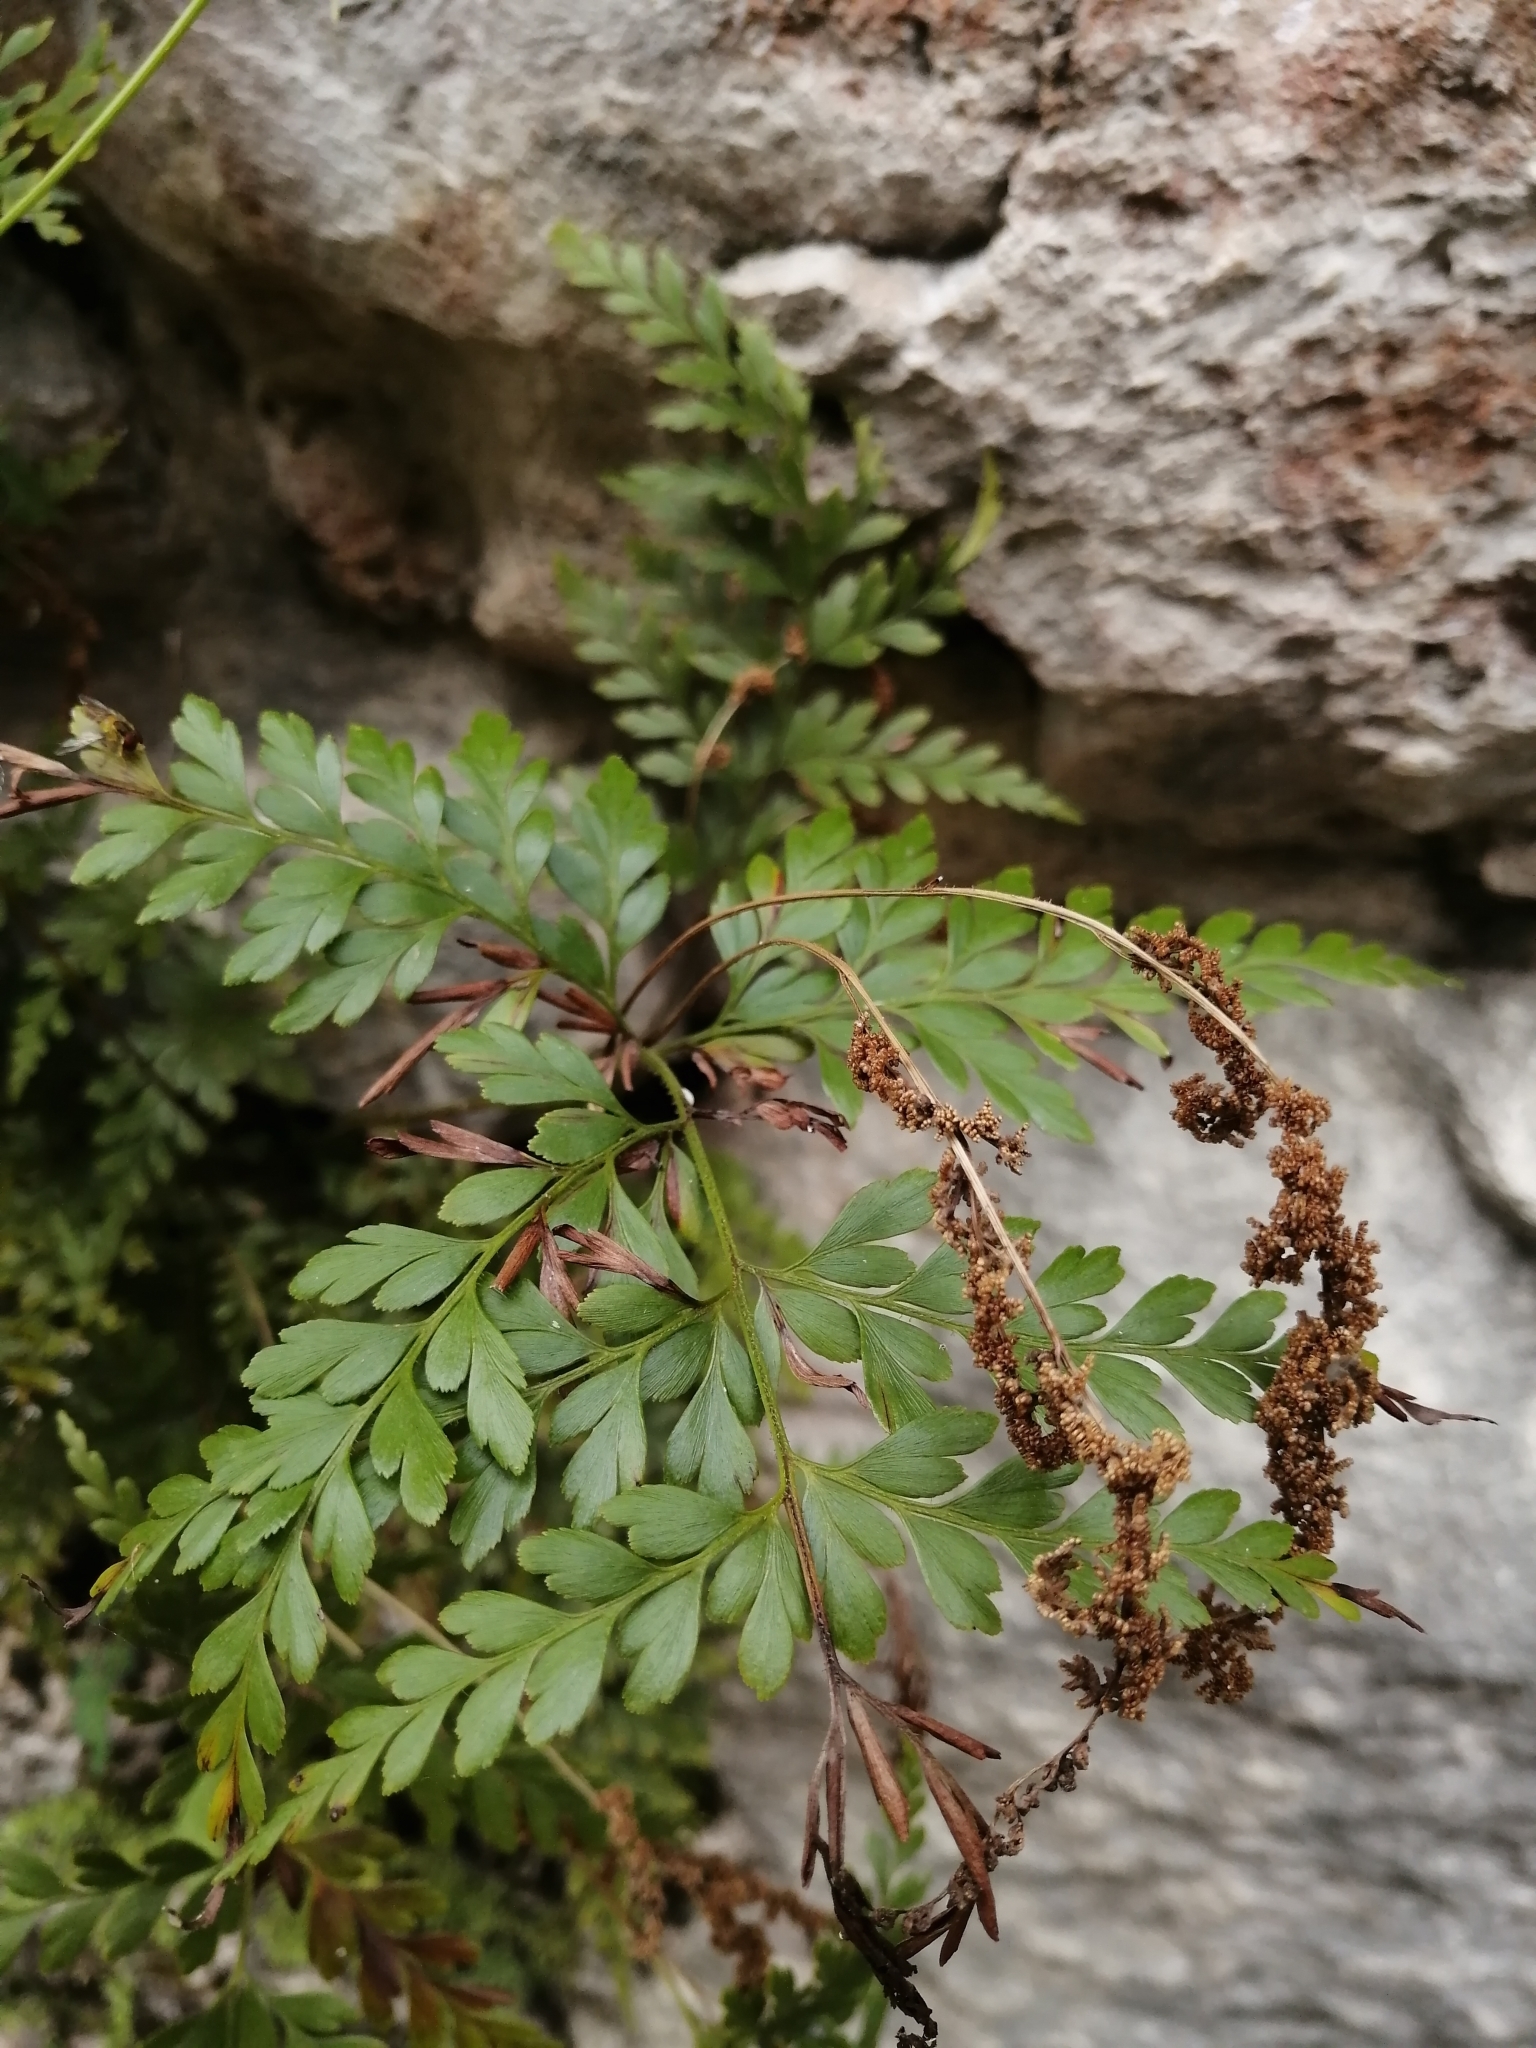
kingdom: Plantae
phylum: Tracheophyta
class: Polypodiopsida
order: Schizaeales
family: Anemiaceae
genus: Anemia
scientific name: Anemia adiantifolia
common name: Pine fern
